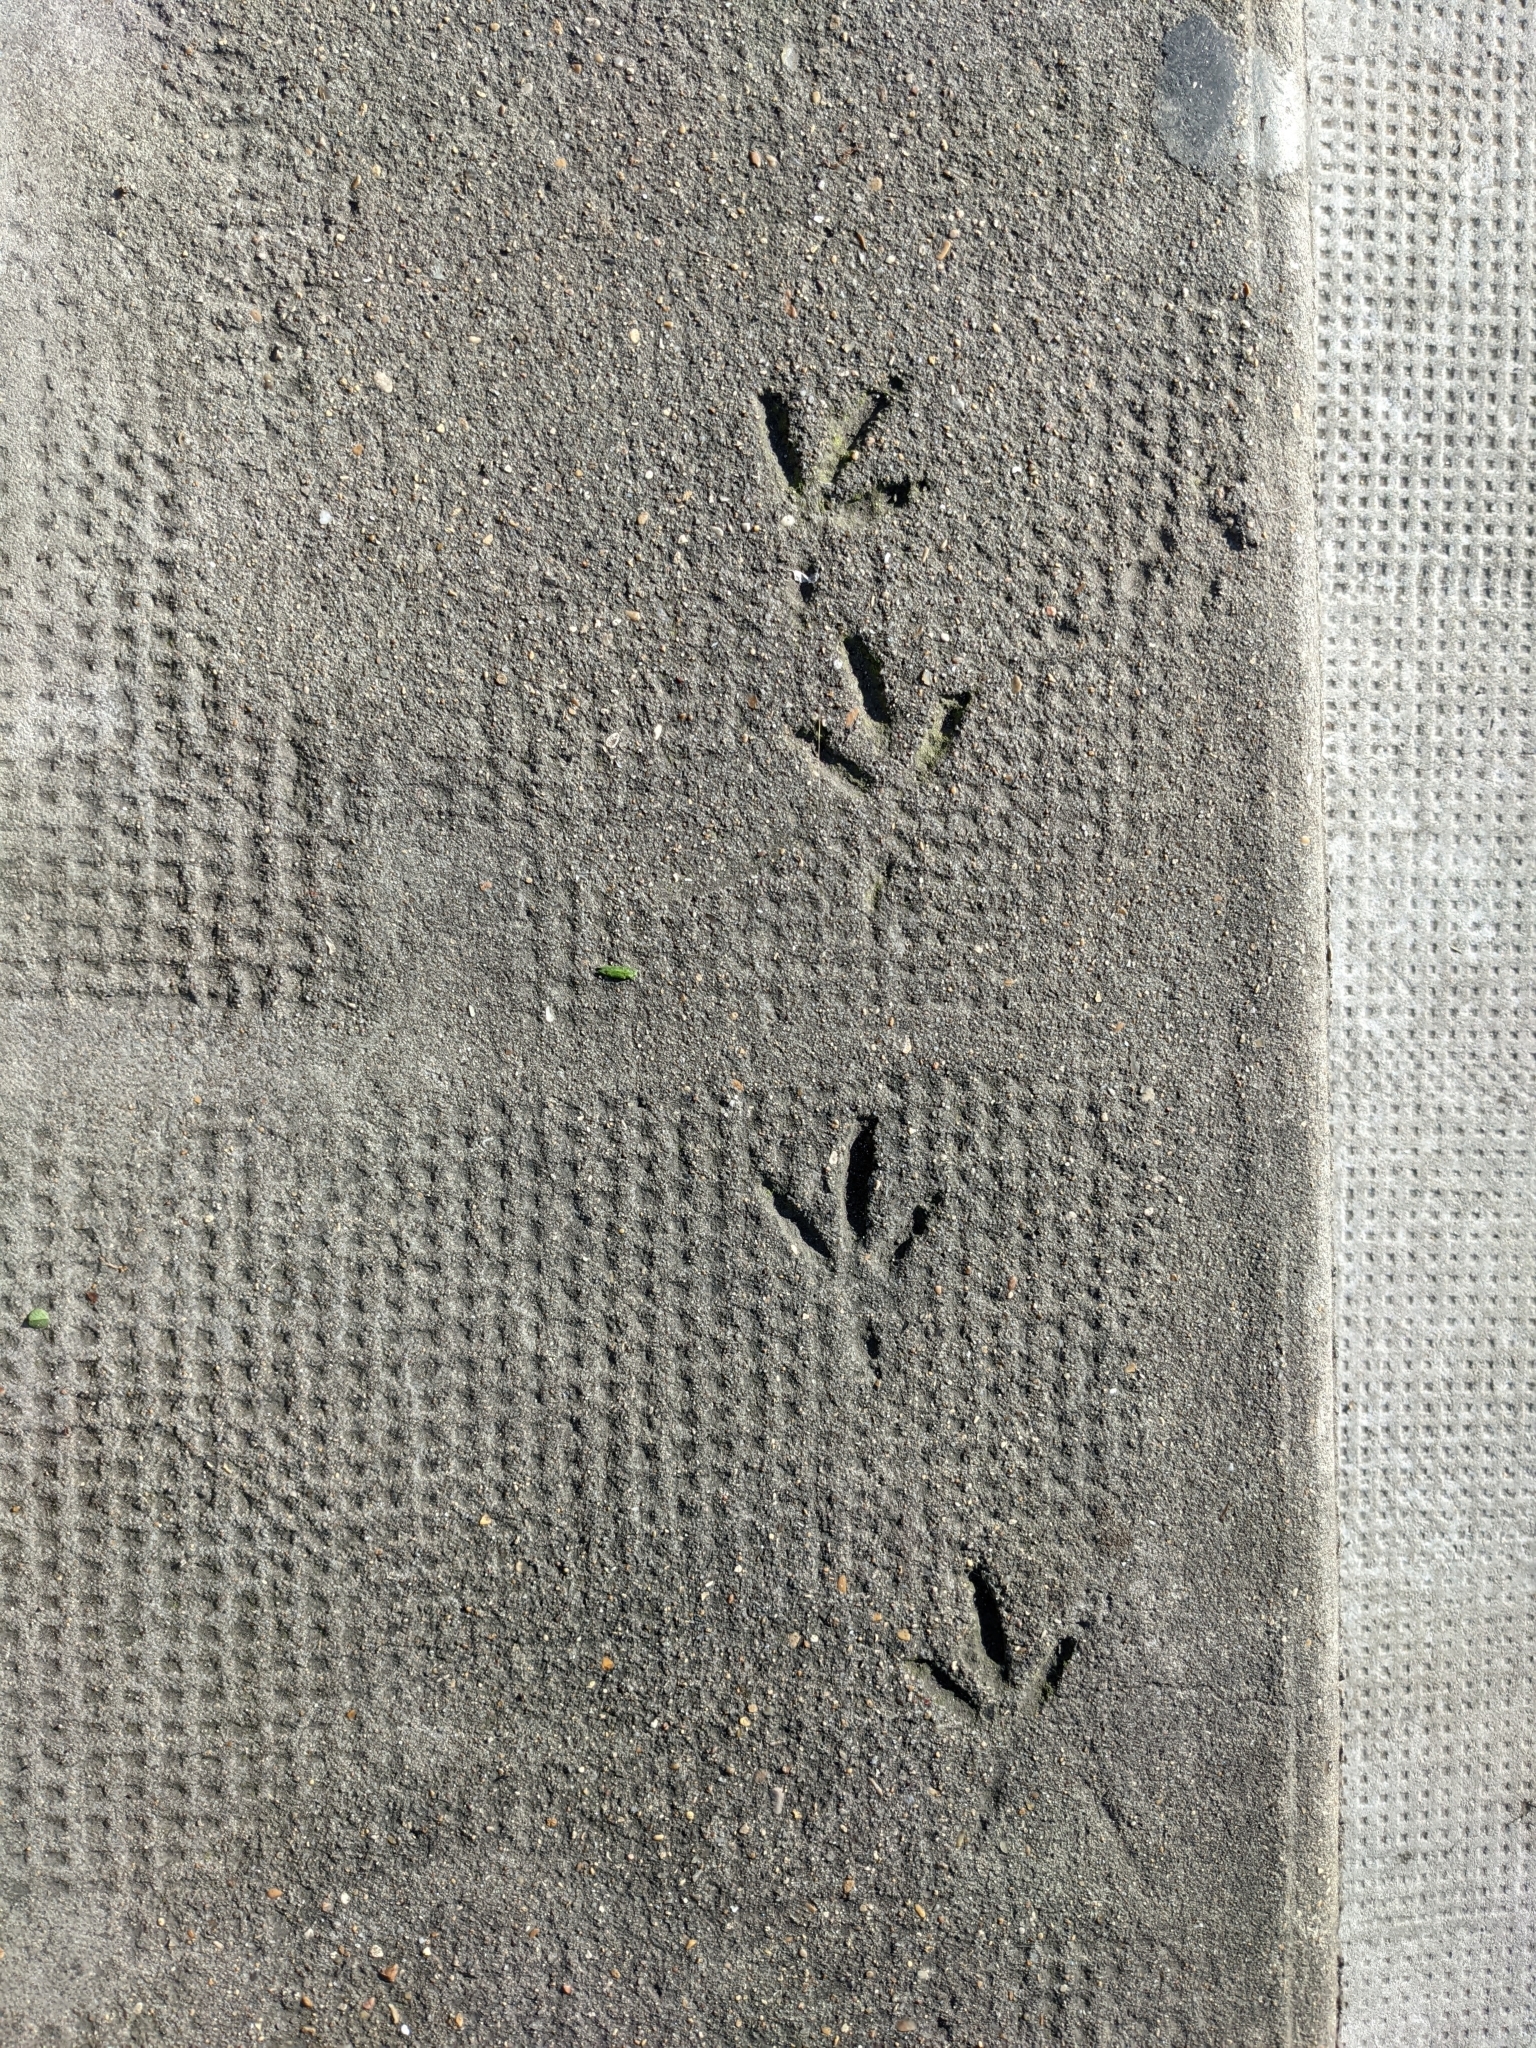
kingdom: Animalia
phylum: Chordata
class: Aves
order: Columbiformes
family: Columbidae
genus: Columba
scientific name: Columba livia
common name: Rock pigeon
